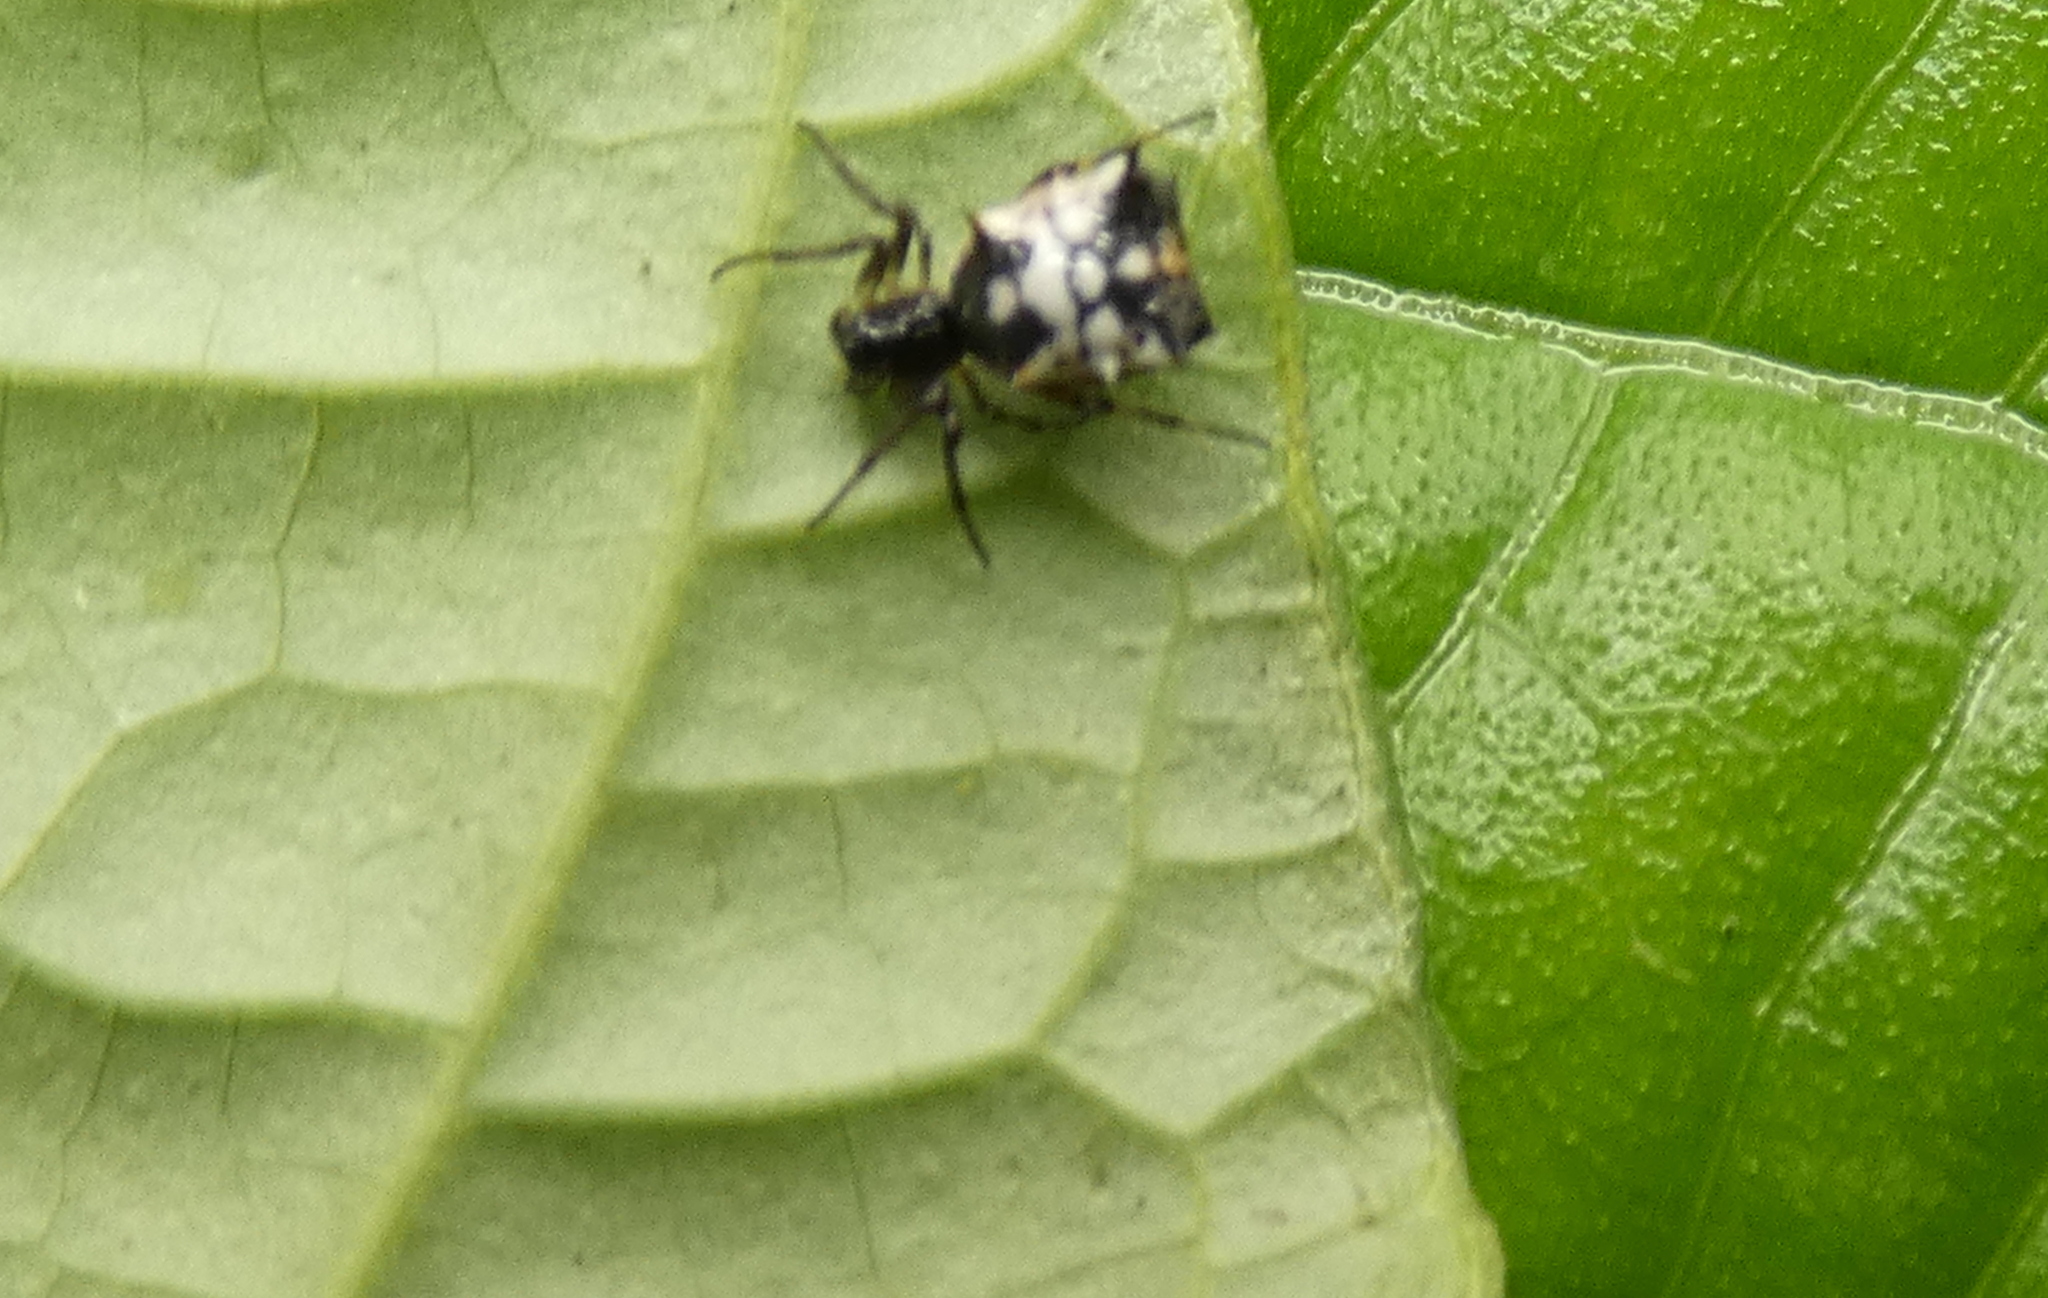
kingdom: Animalia
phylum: Arthropoda
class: Arachnida
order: Araneae
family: Araneidae
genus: Micrathena
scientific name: Micrathena picta
